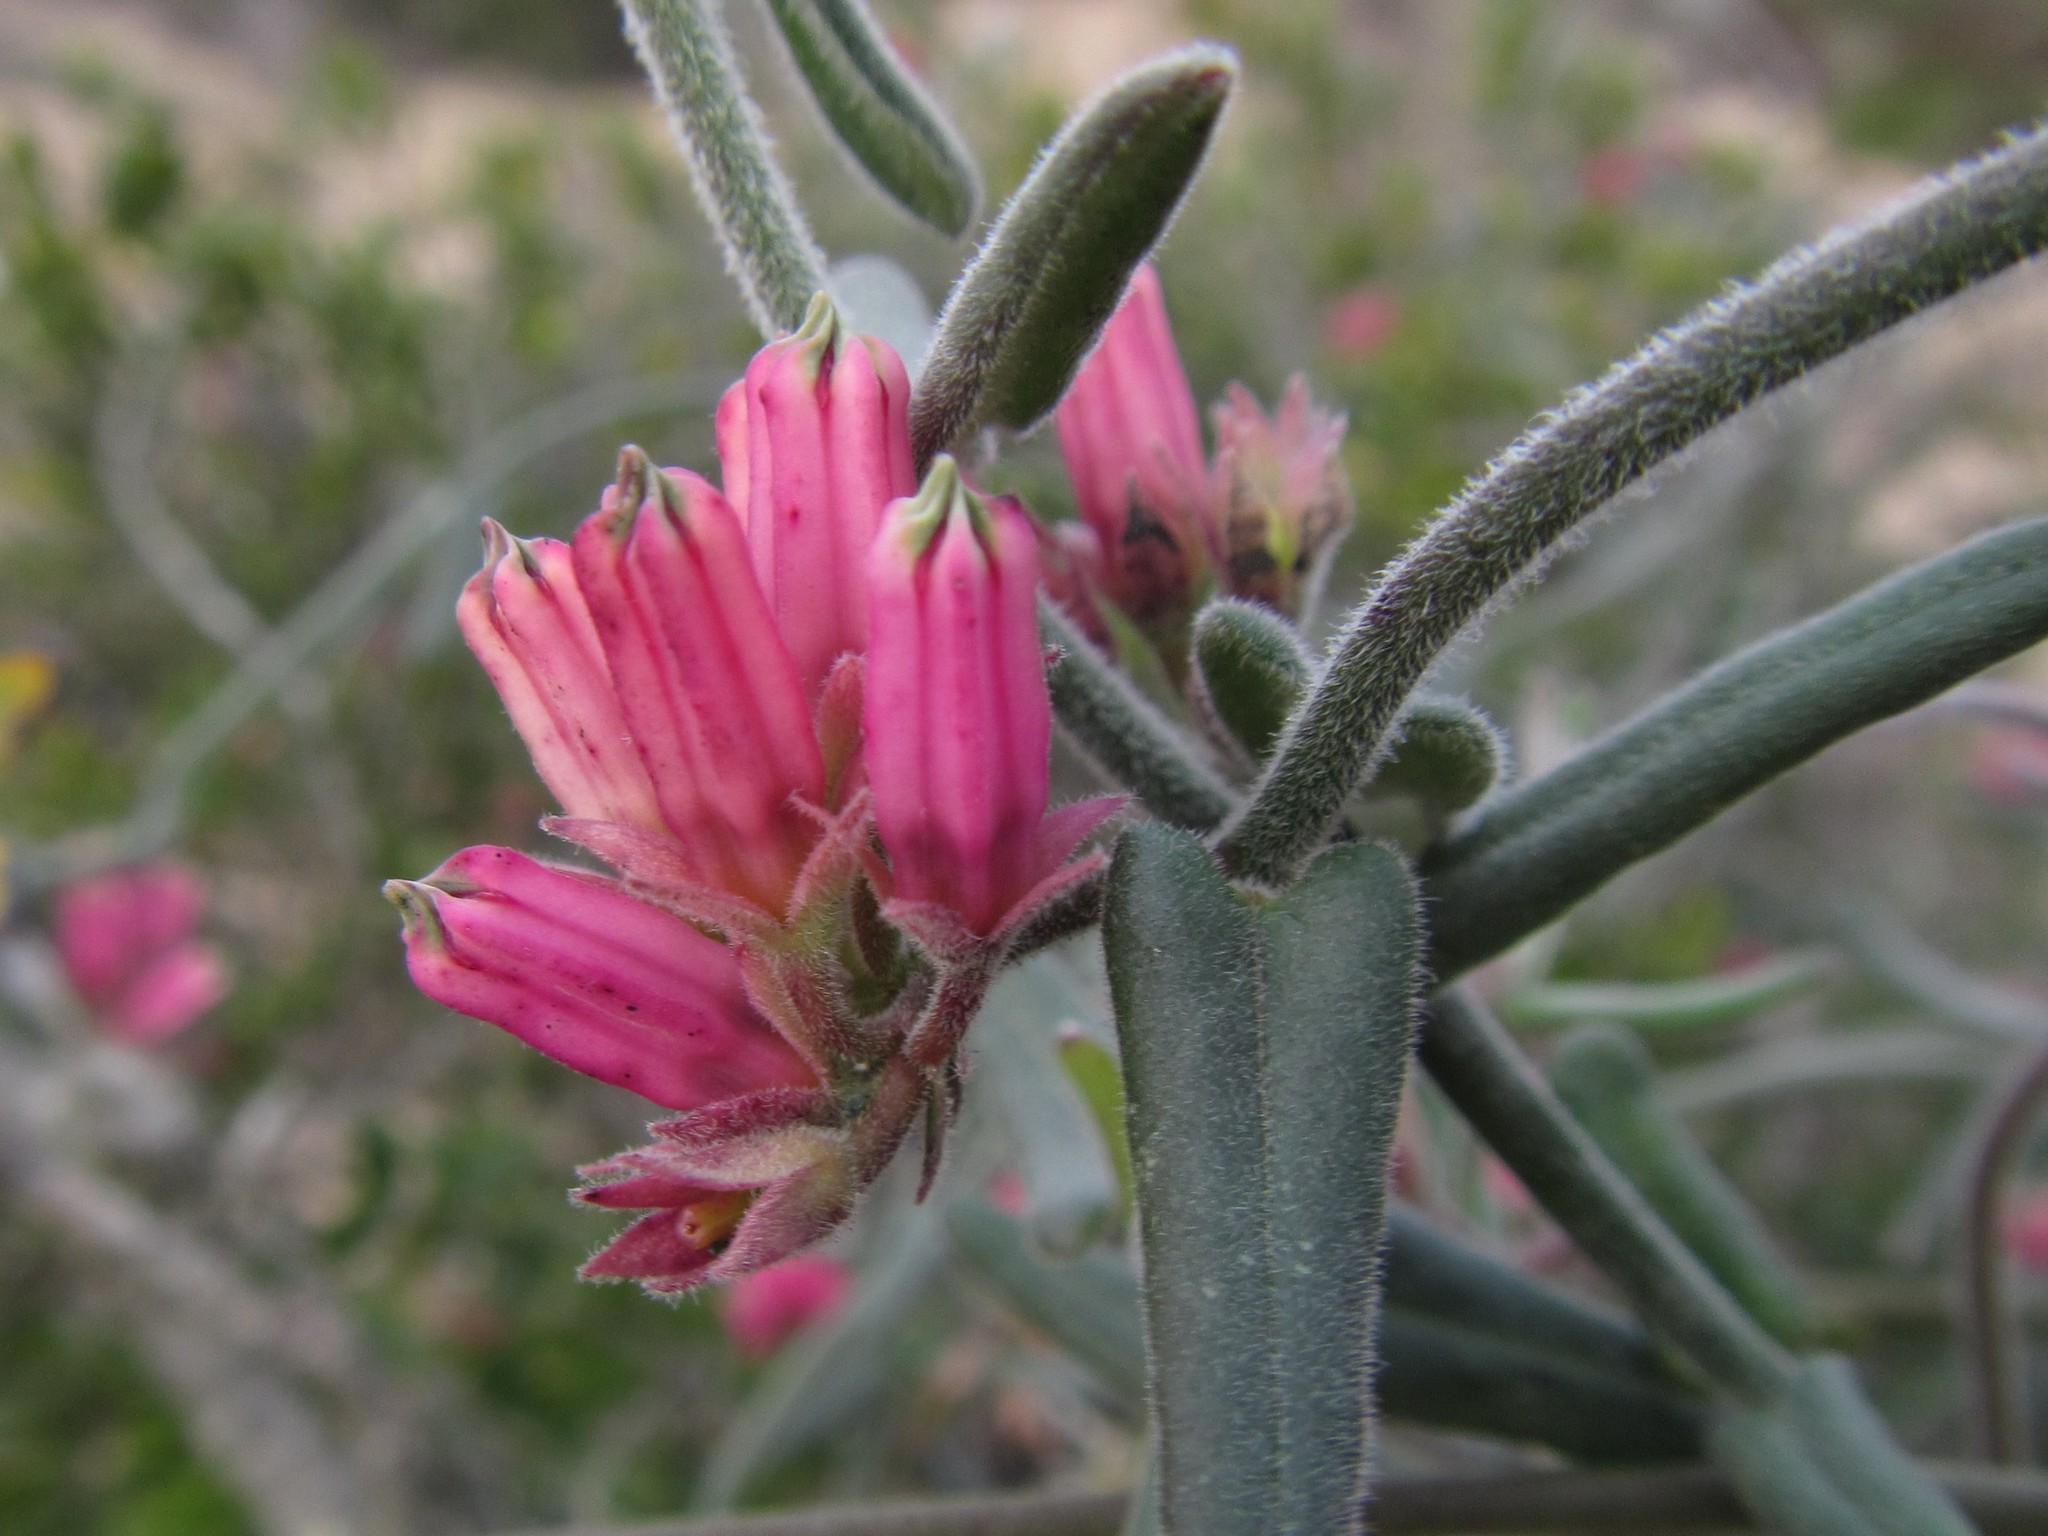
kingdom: Plantae
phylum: Tracheophyta
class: Magnoliopsida
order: Gentianales
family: Apocynaceae
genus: Microloma
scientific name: Microloma sagittatum
